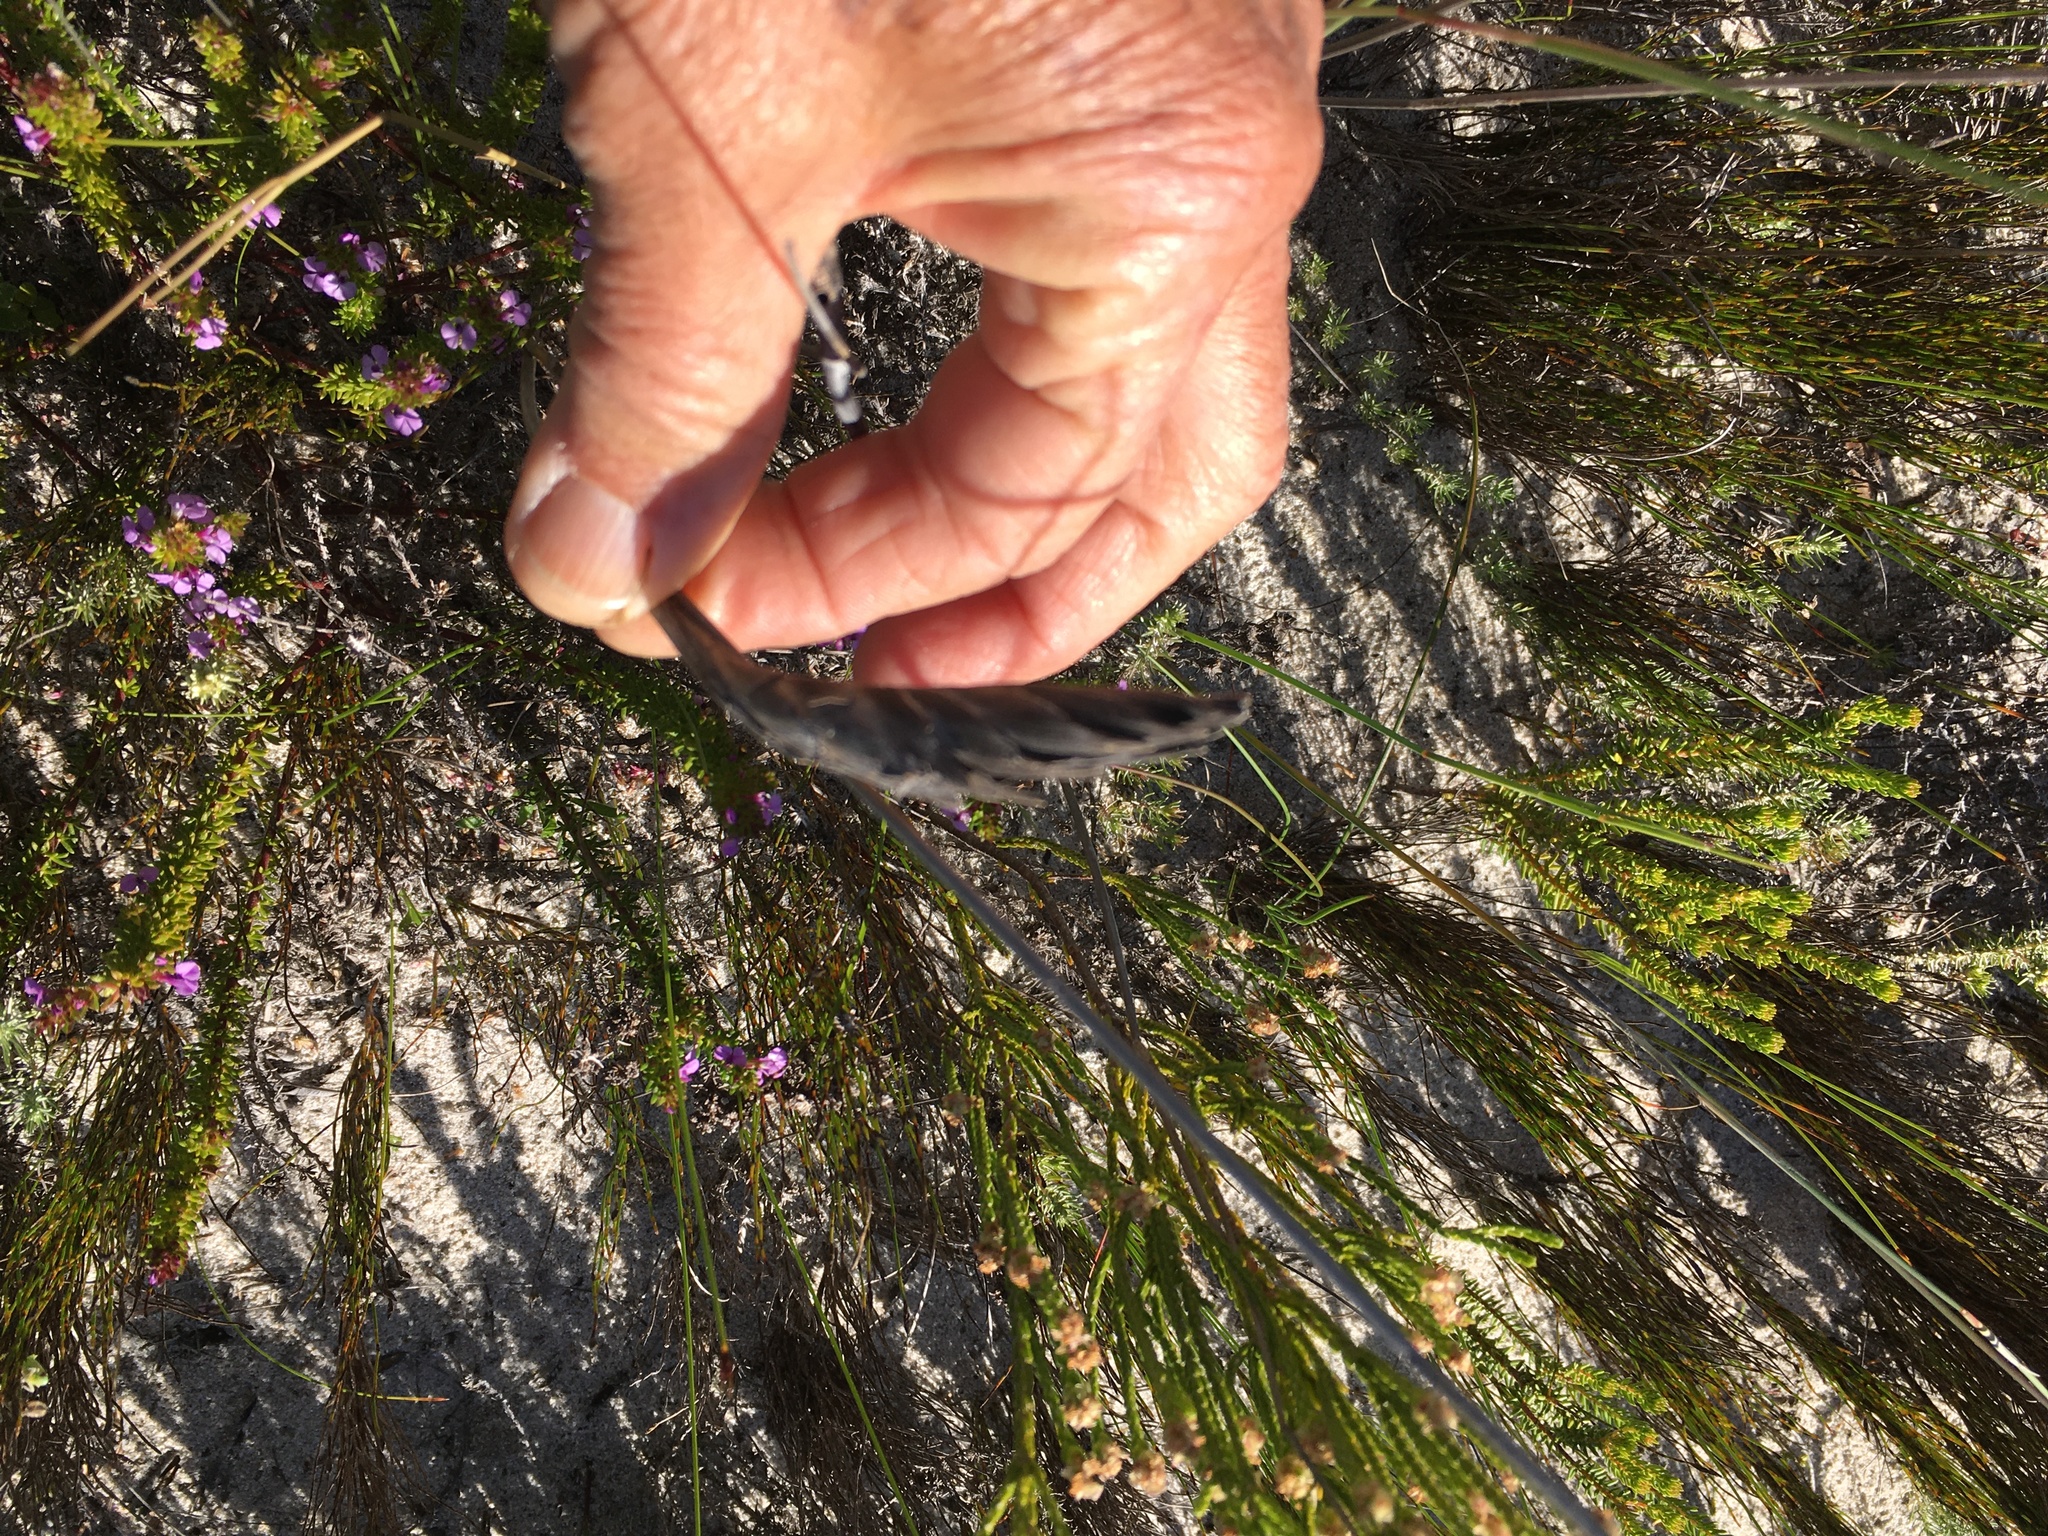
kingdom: Plantae
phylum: Tracheophyta
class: Liliopsida
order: Poales
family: Poaceae
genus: Ehrharta
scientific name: Ehrharta villosa
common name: Pyp grass
